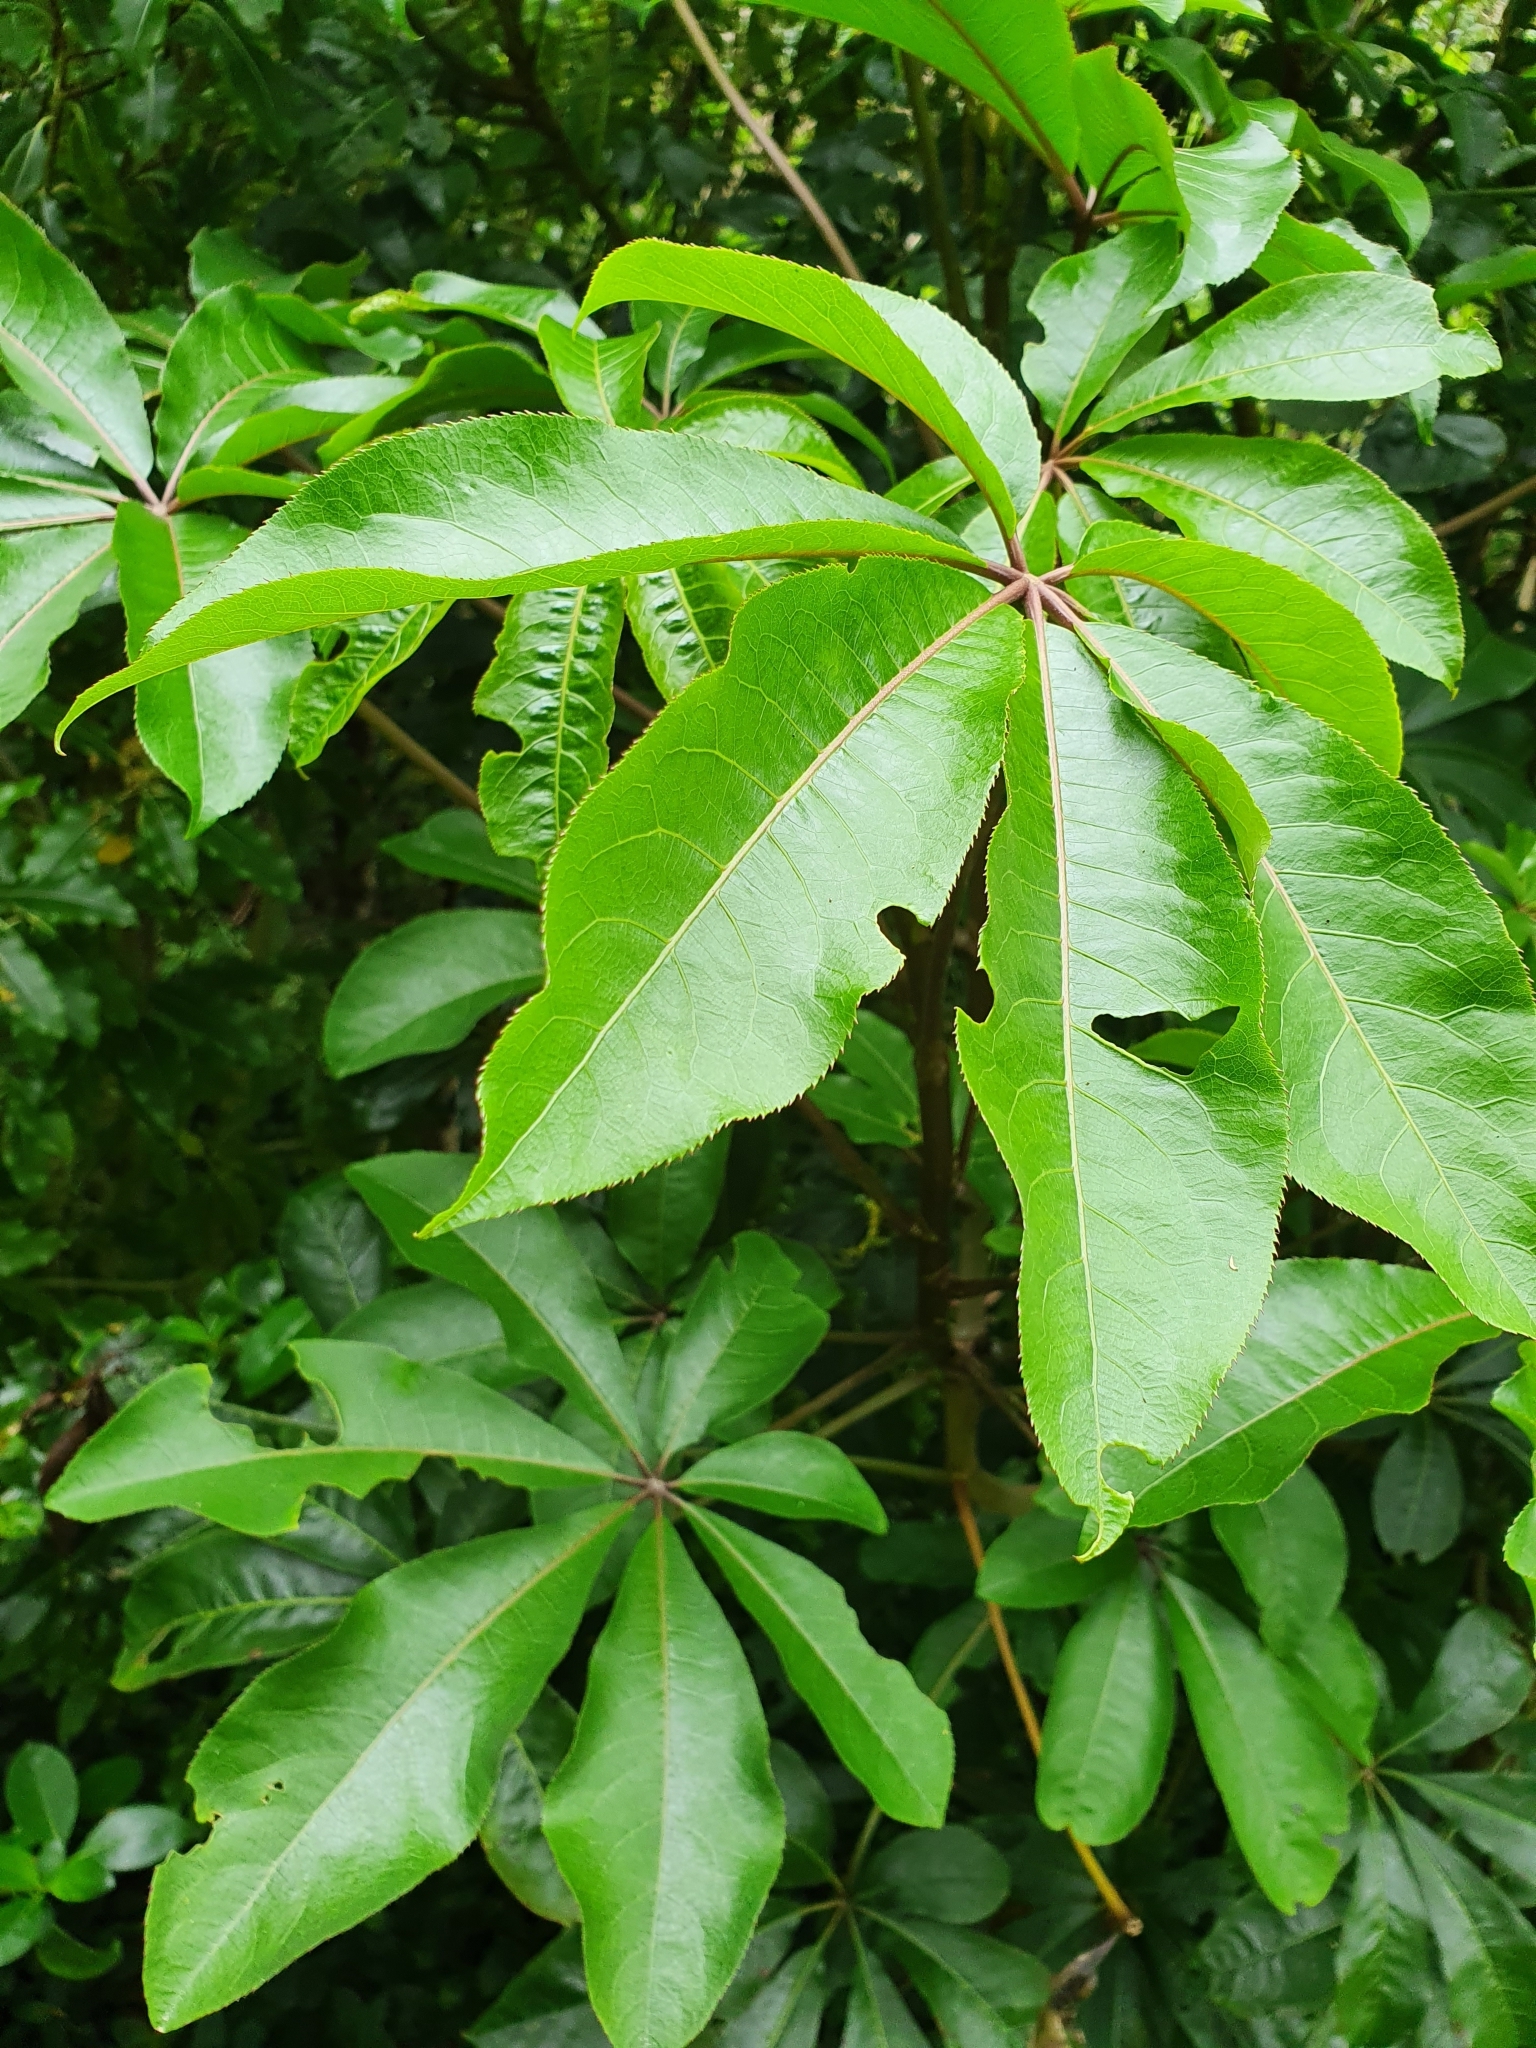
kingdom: Plantae
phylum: Tracheophyta
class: Magnoliopsida
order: Apiales
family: Araliaceae
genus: Schefflera
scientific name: Schefflera digitata
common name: Pate
